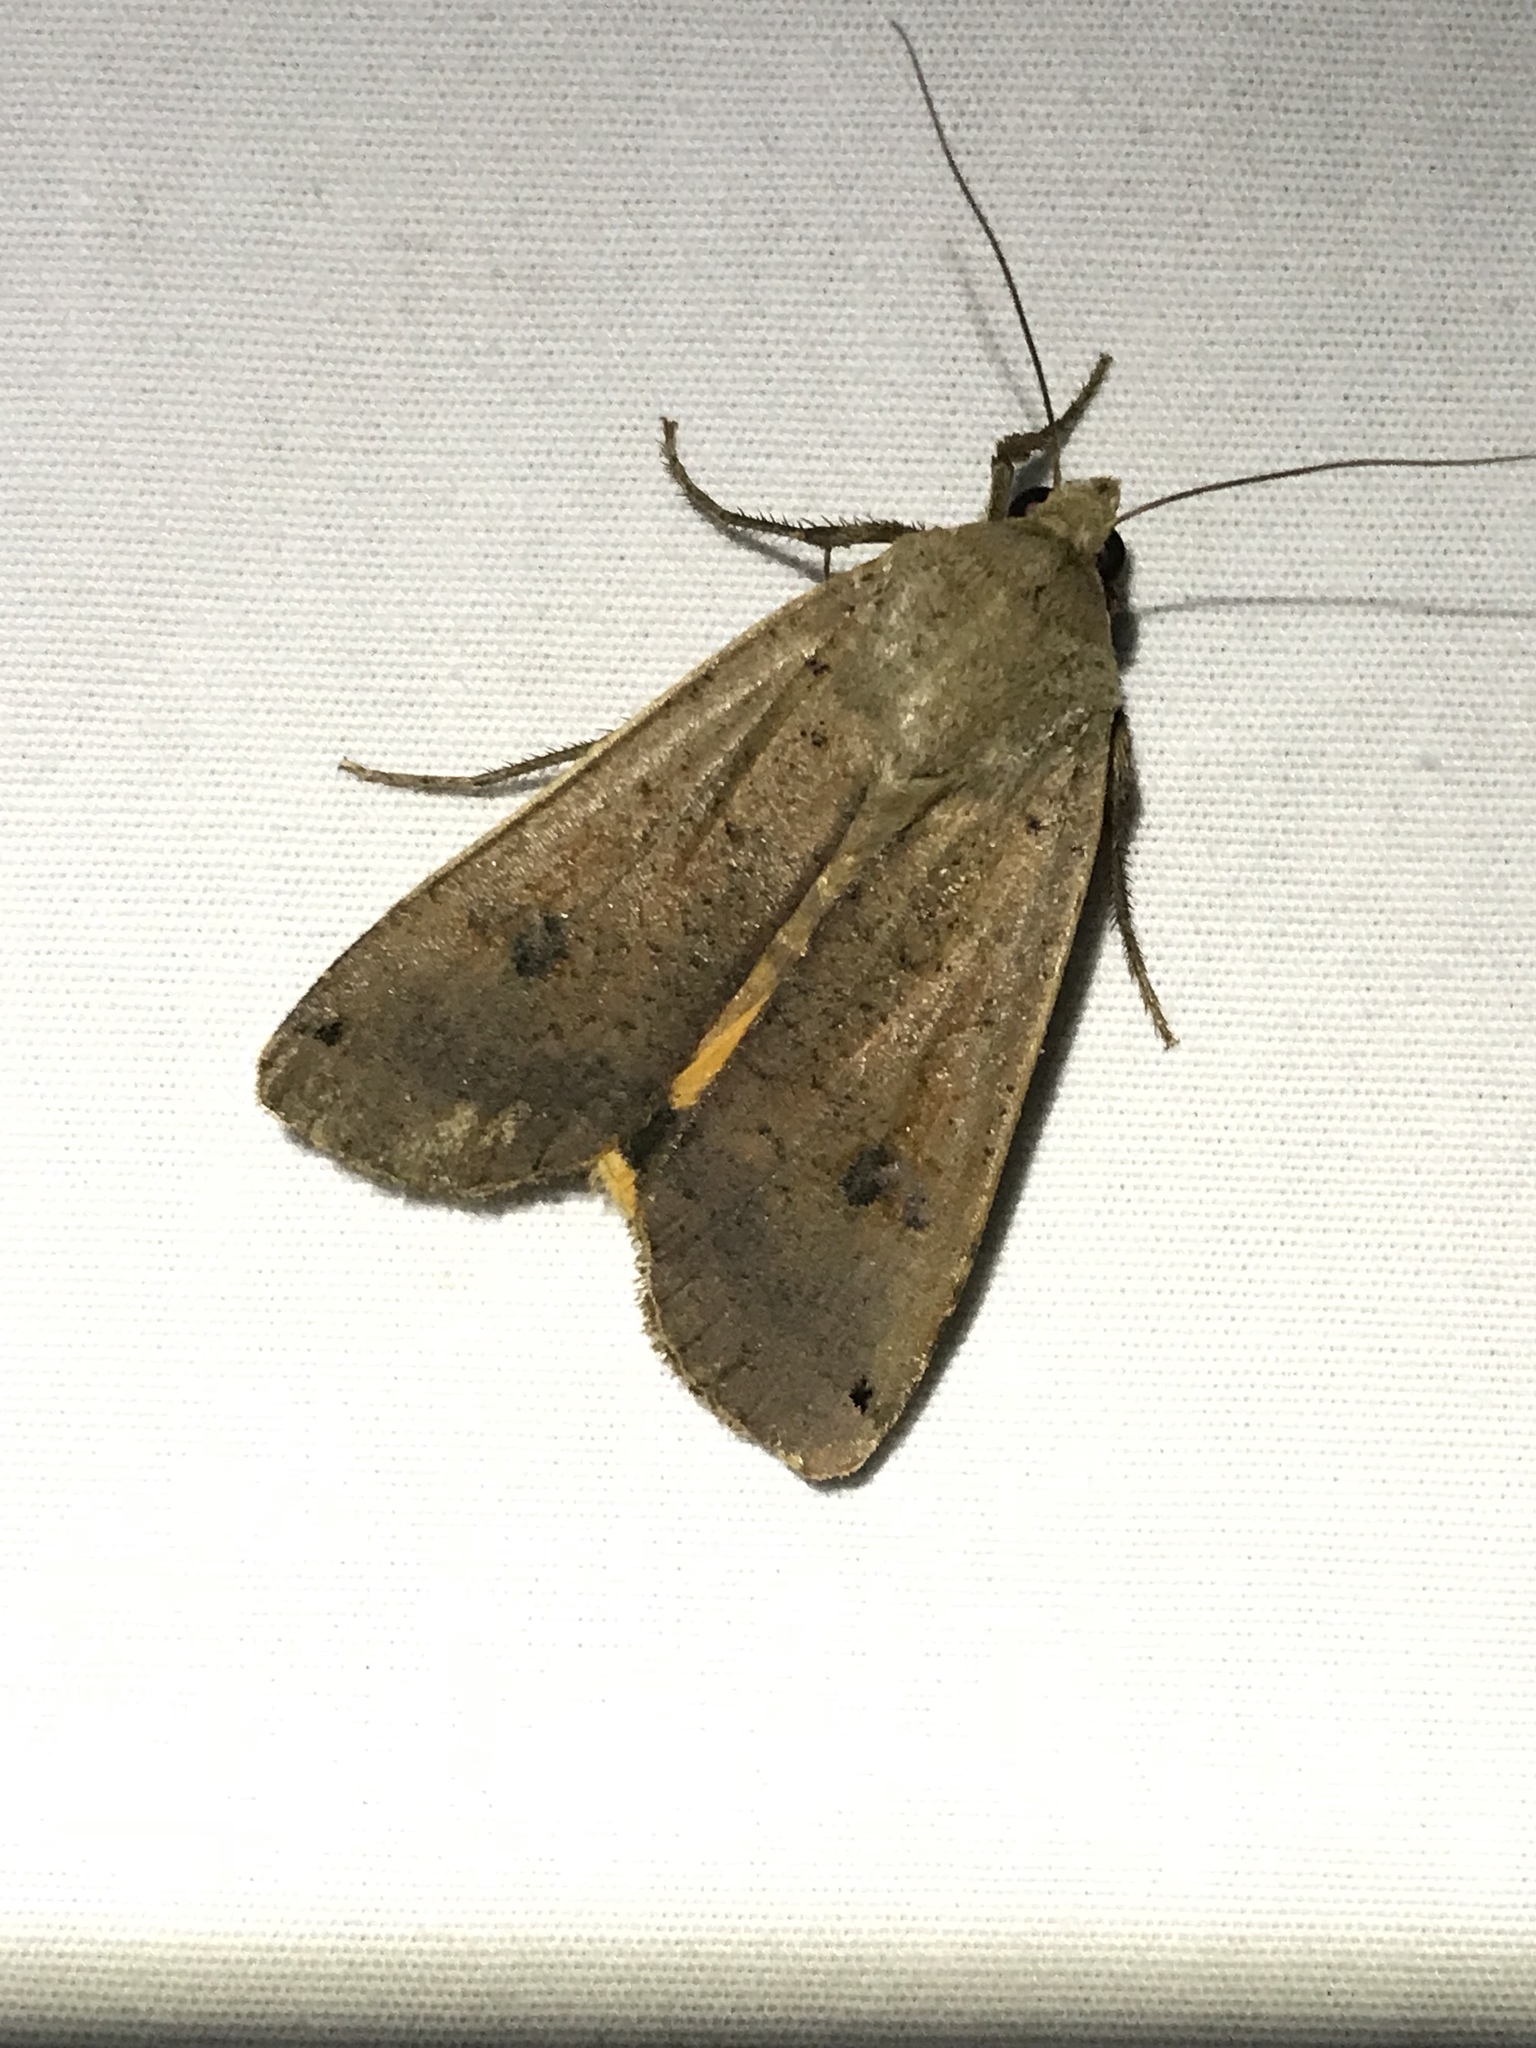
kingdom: Animalia
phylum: Arthropoda
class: Insecta
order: Lepidoptera
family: Noctuidae
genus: Noctua
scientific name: Noctua pronuba
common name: Large yellow underwing
